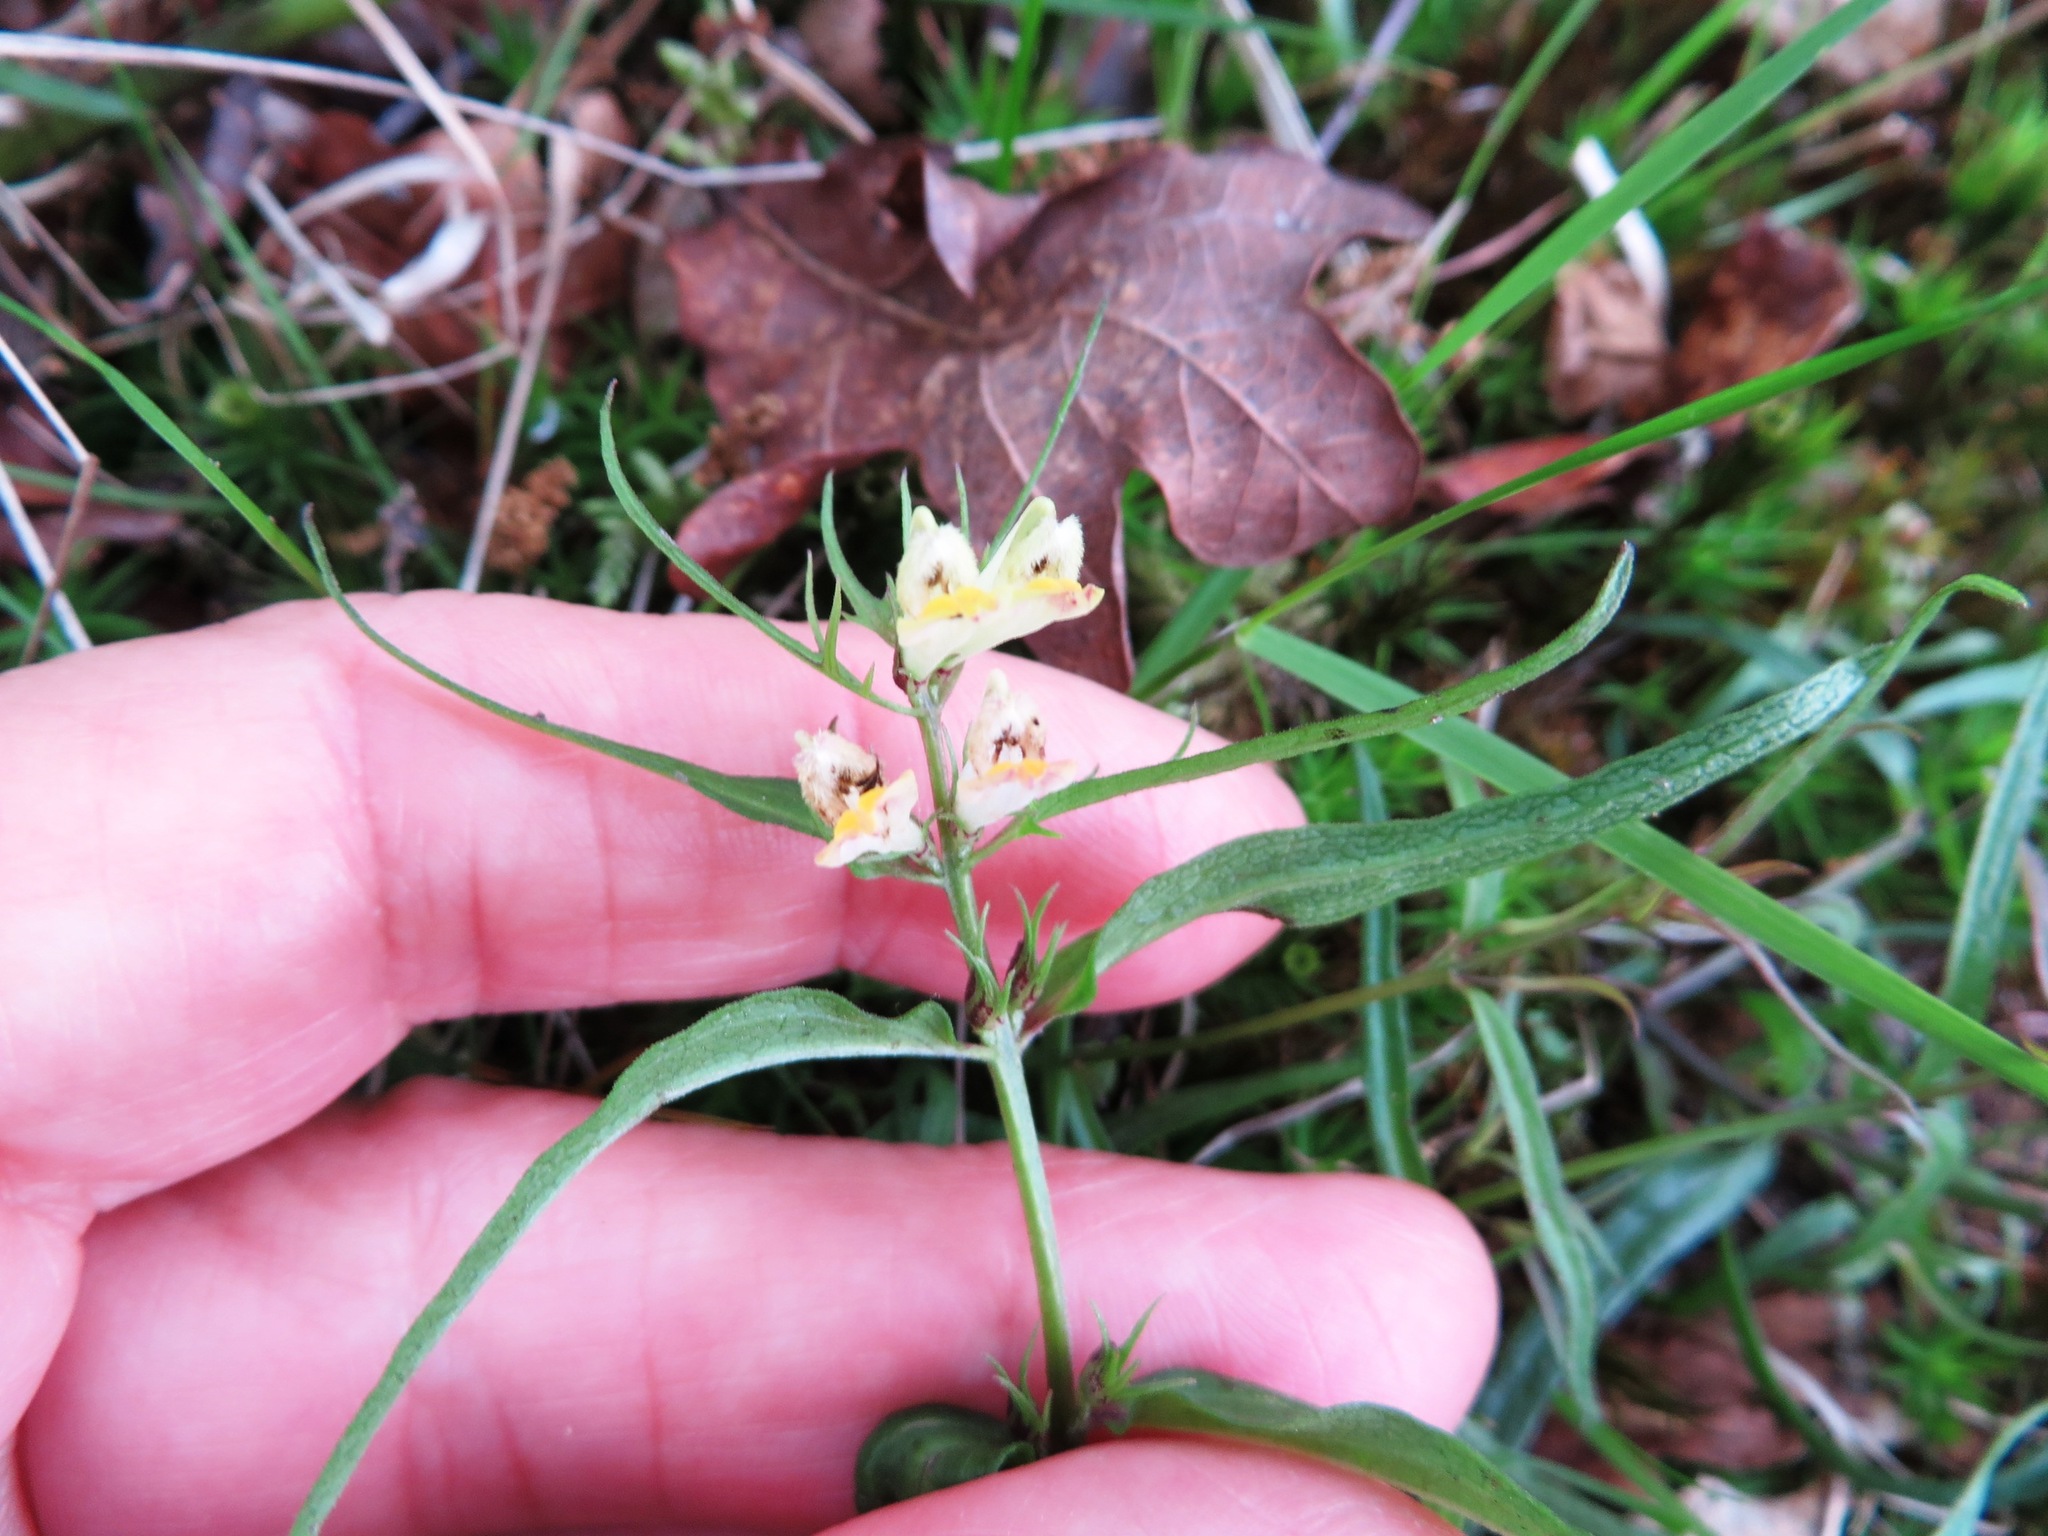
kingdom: Plantae
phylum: Tracheophyta
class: Magnoliopsida
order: Lamiales
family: Orobanchaceae
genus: Melampyrum
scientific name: Melampyrum pratense
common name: Common cow-wheat
